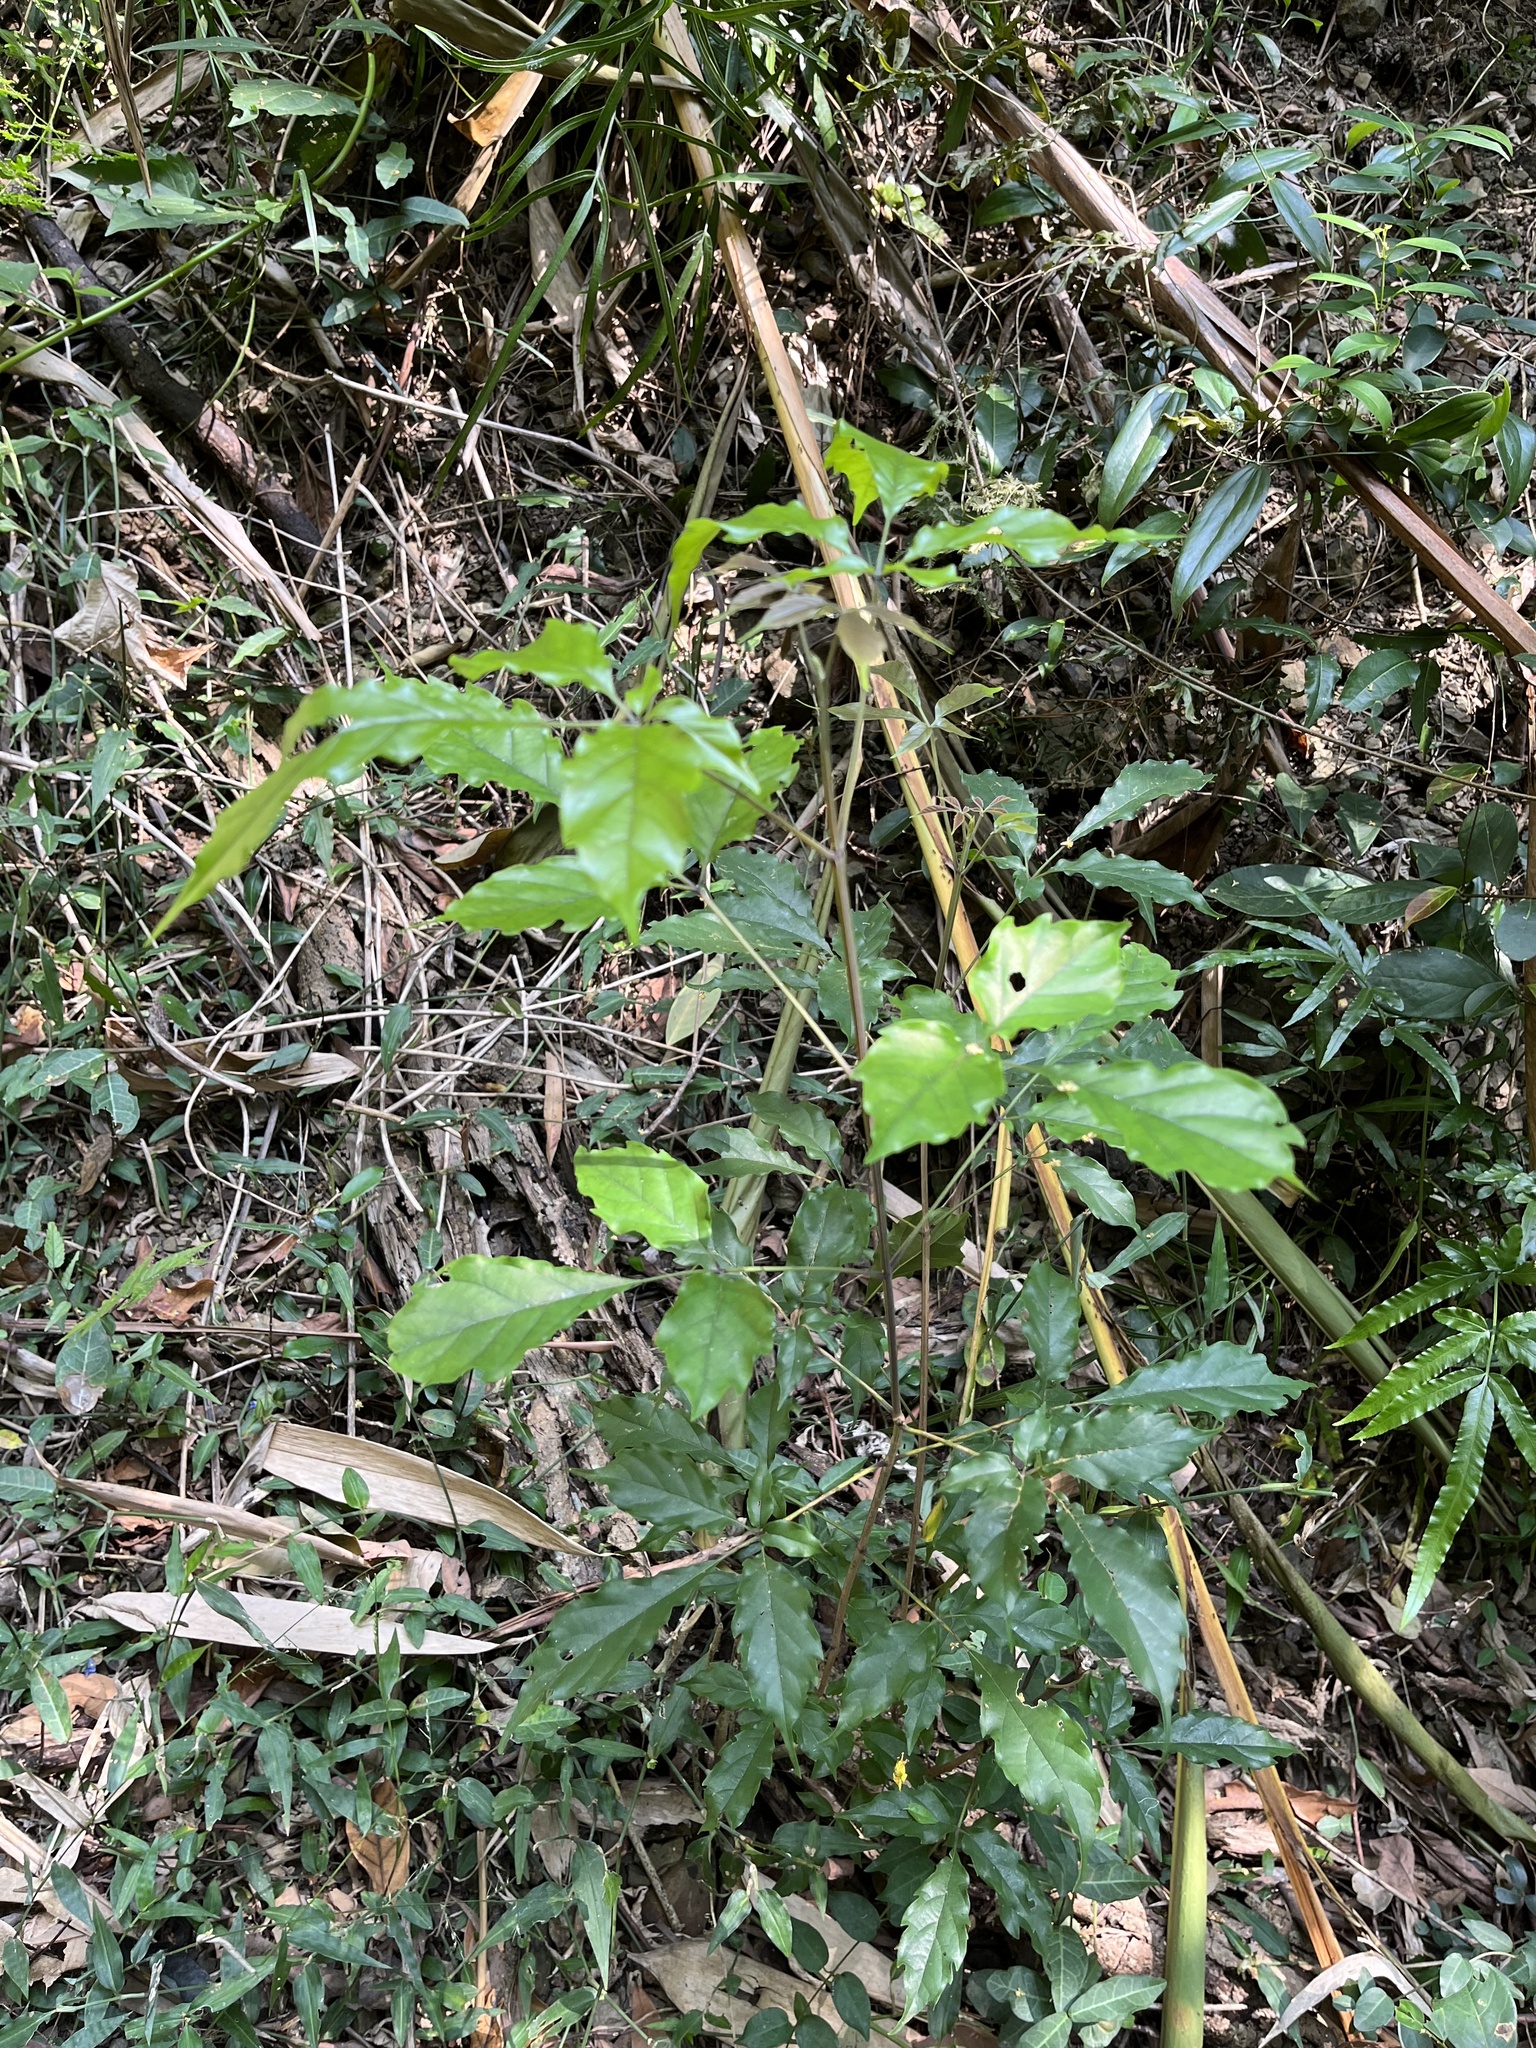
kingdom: Plantae
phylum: Tracheophyta
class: Magnoliopsida
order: Lamiales
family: Lamiaceae
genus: Vitex
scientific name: Vitex quinata
